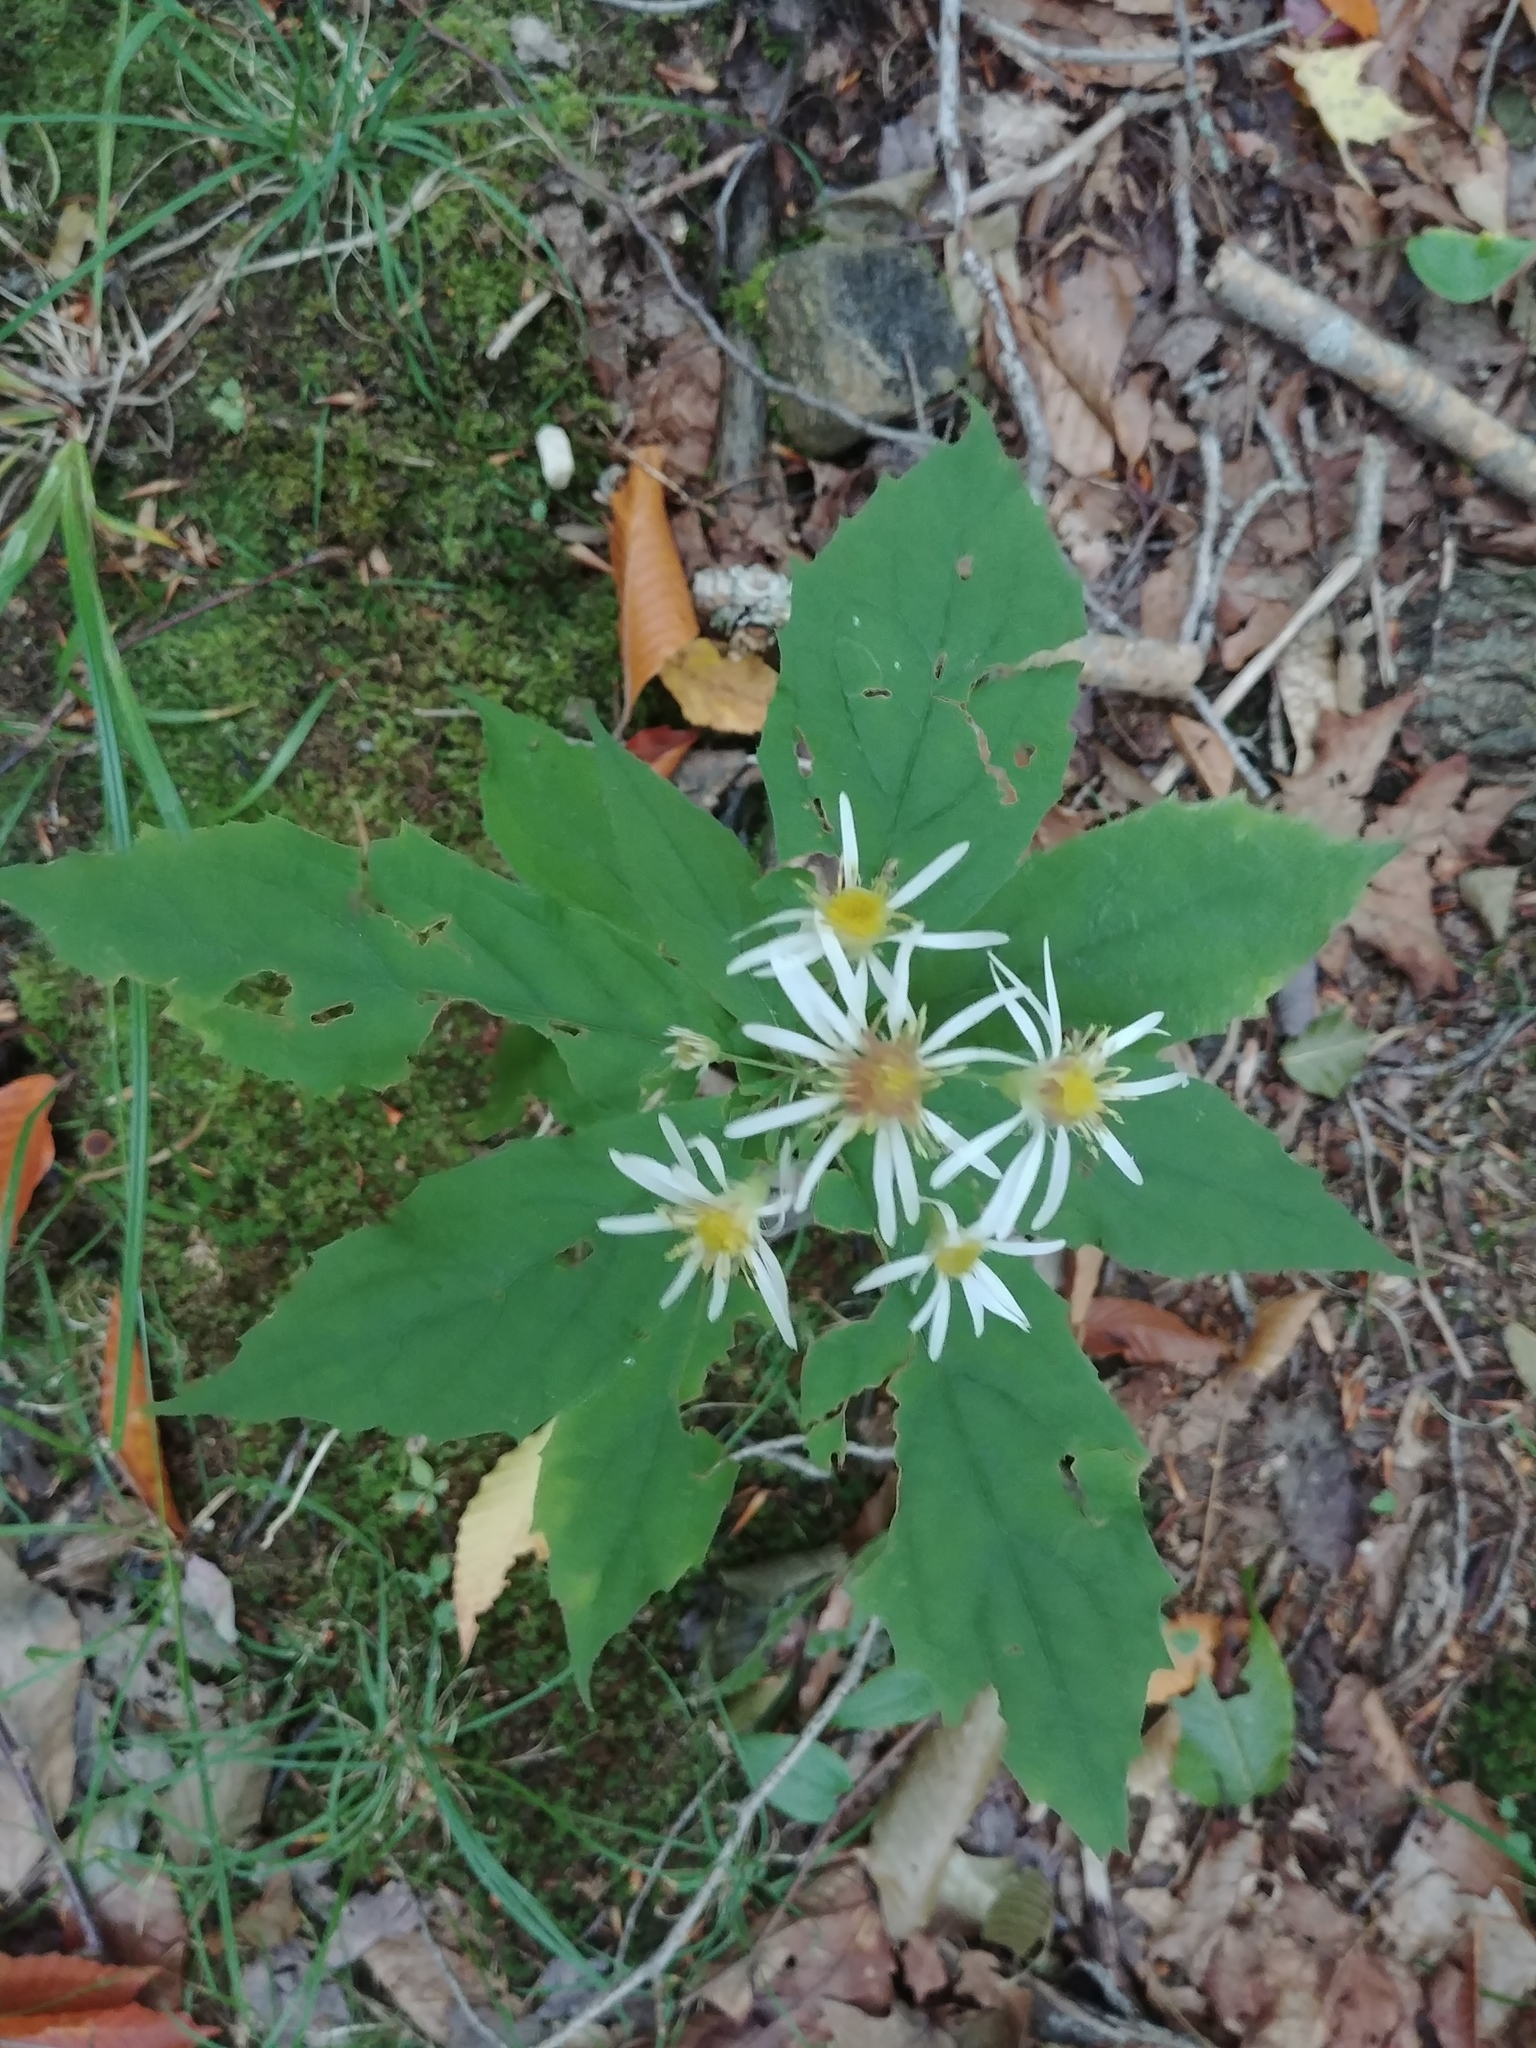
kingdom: Plantae
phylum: Tracheophyta
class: Magnoliopsida
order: Asterales
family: Asteraceae
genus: Oclemena
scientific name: Oclemena acuminata
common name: Mountain aster
